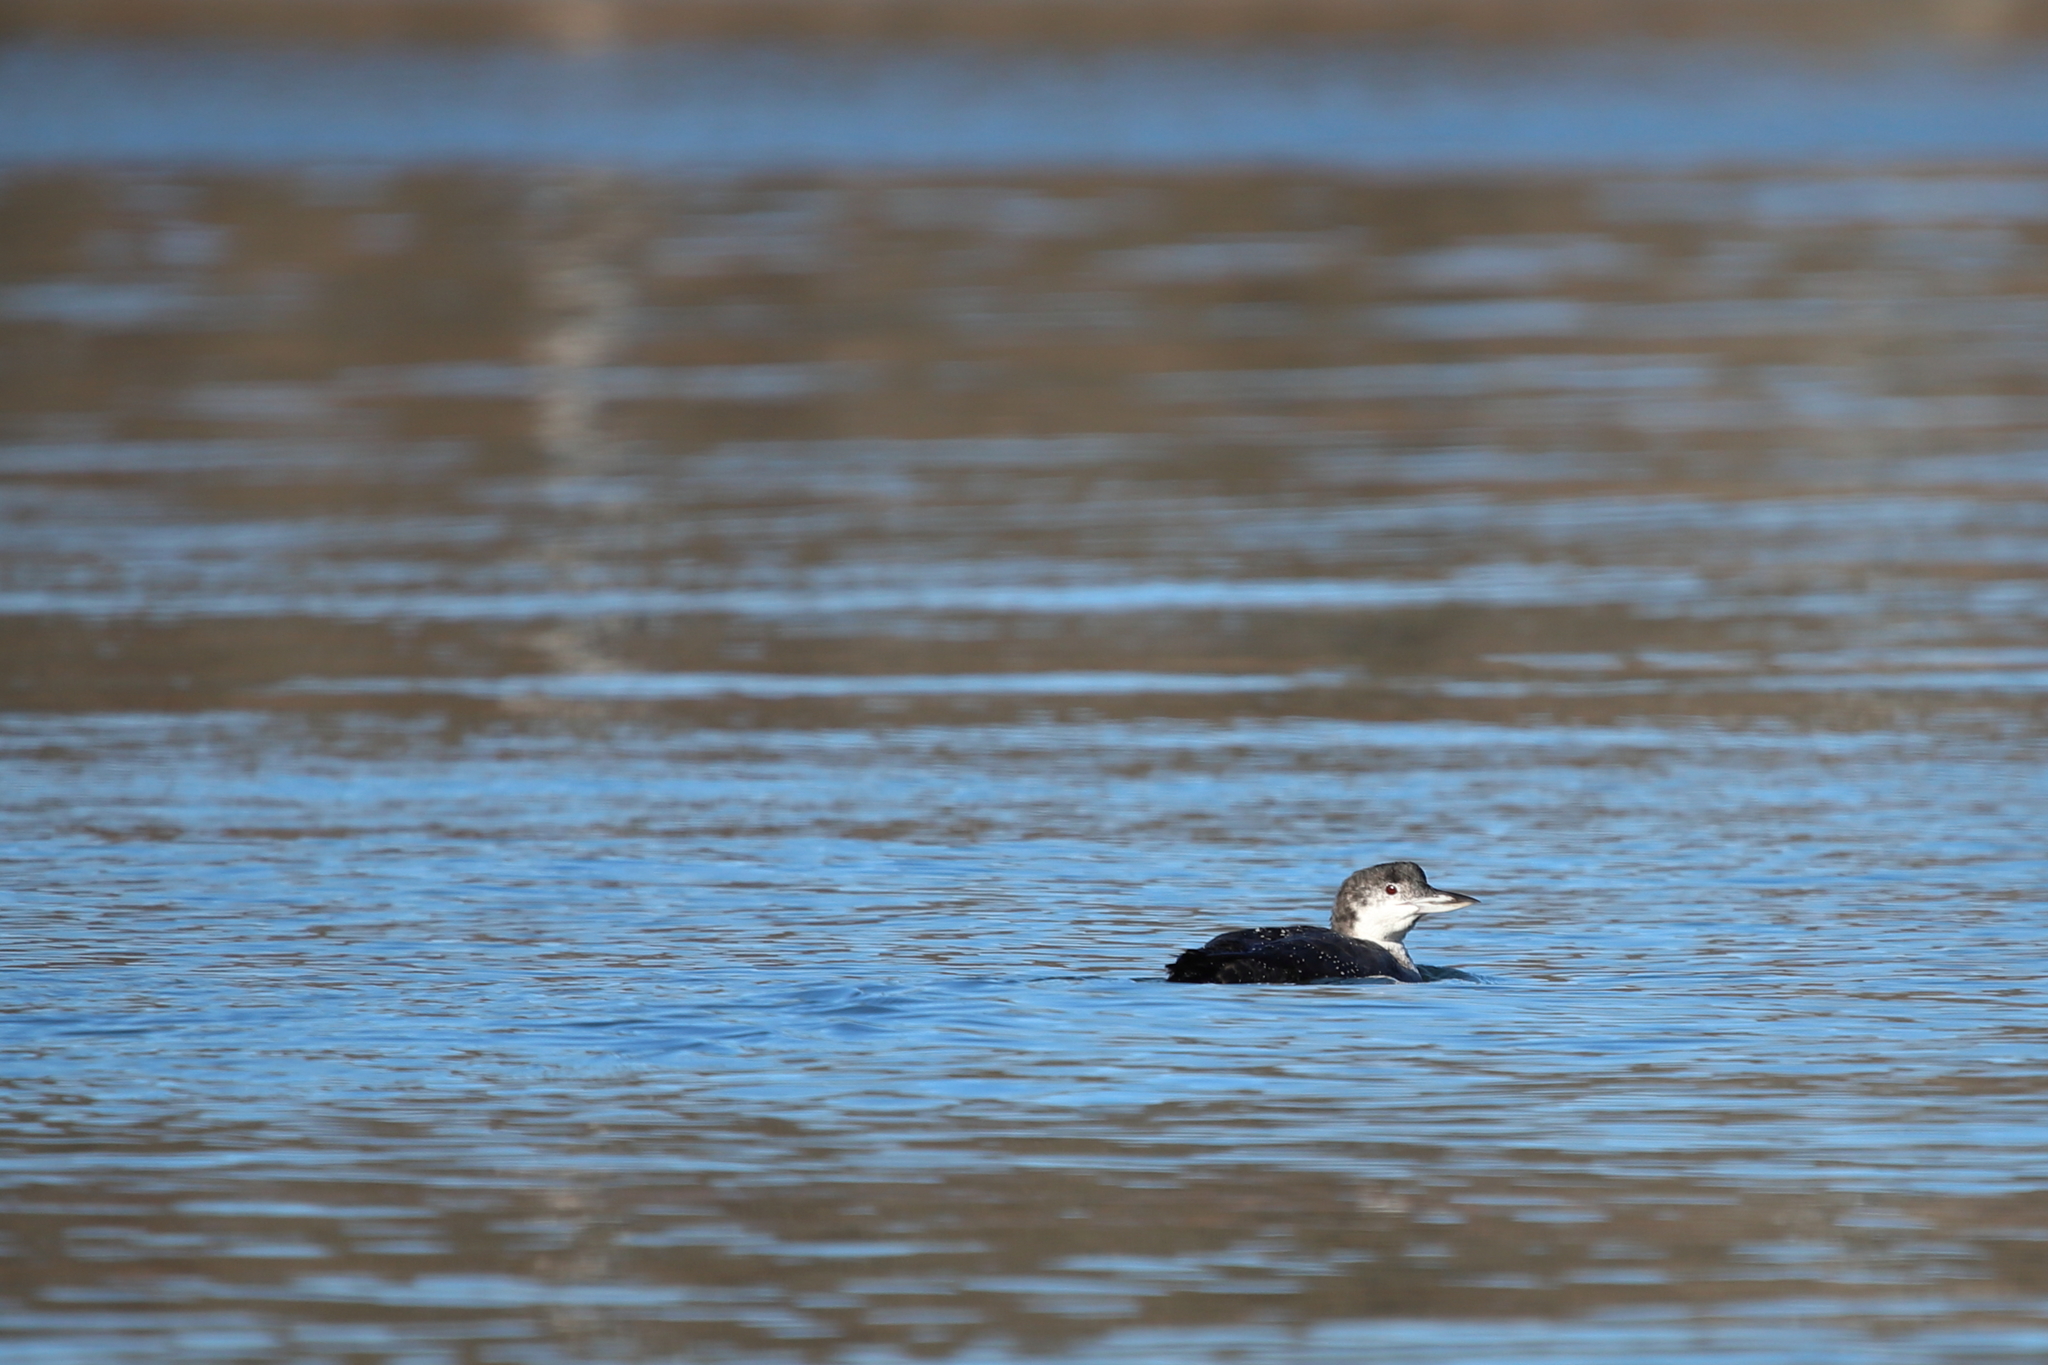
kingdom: Animalia
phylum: Chordata
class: Aves
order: Gaviiformes
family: Gaviidae
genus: Gavia
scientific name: Gavia immer
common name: Common loon
